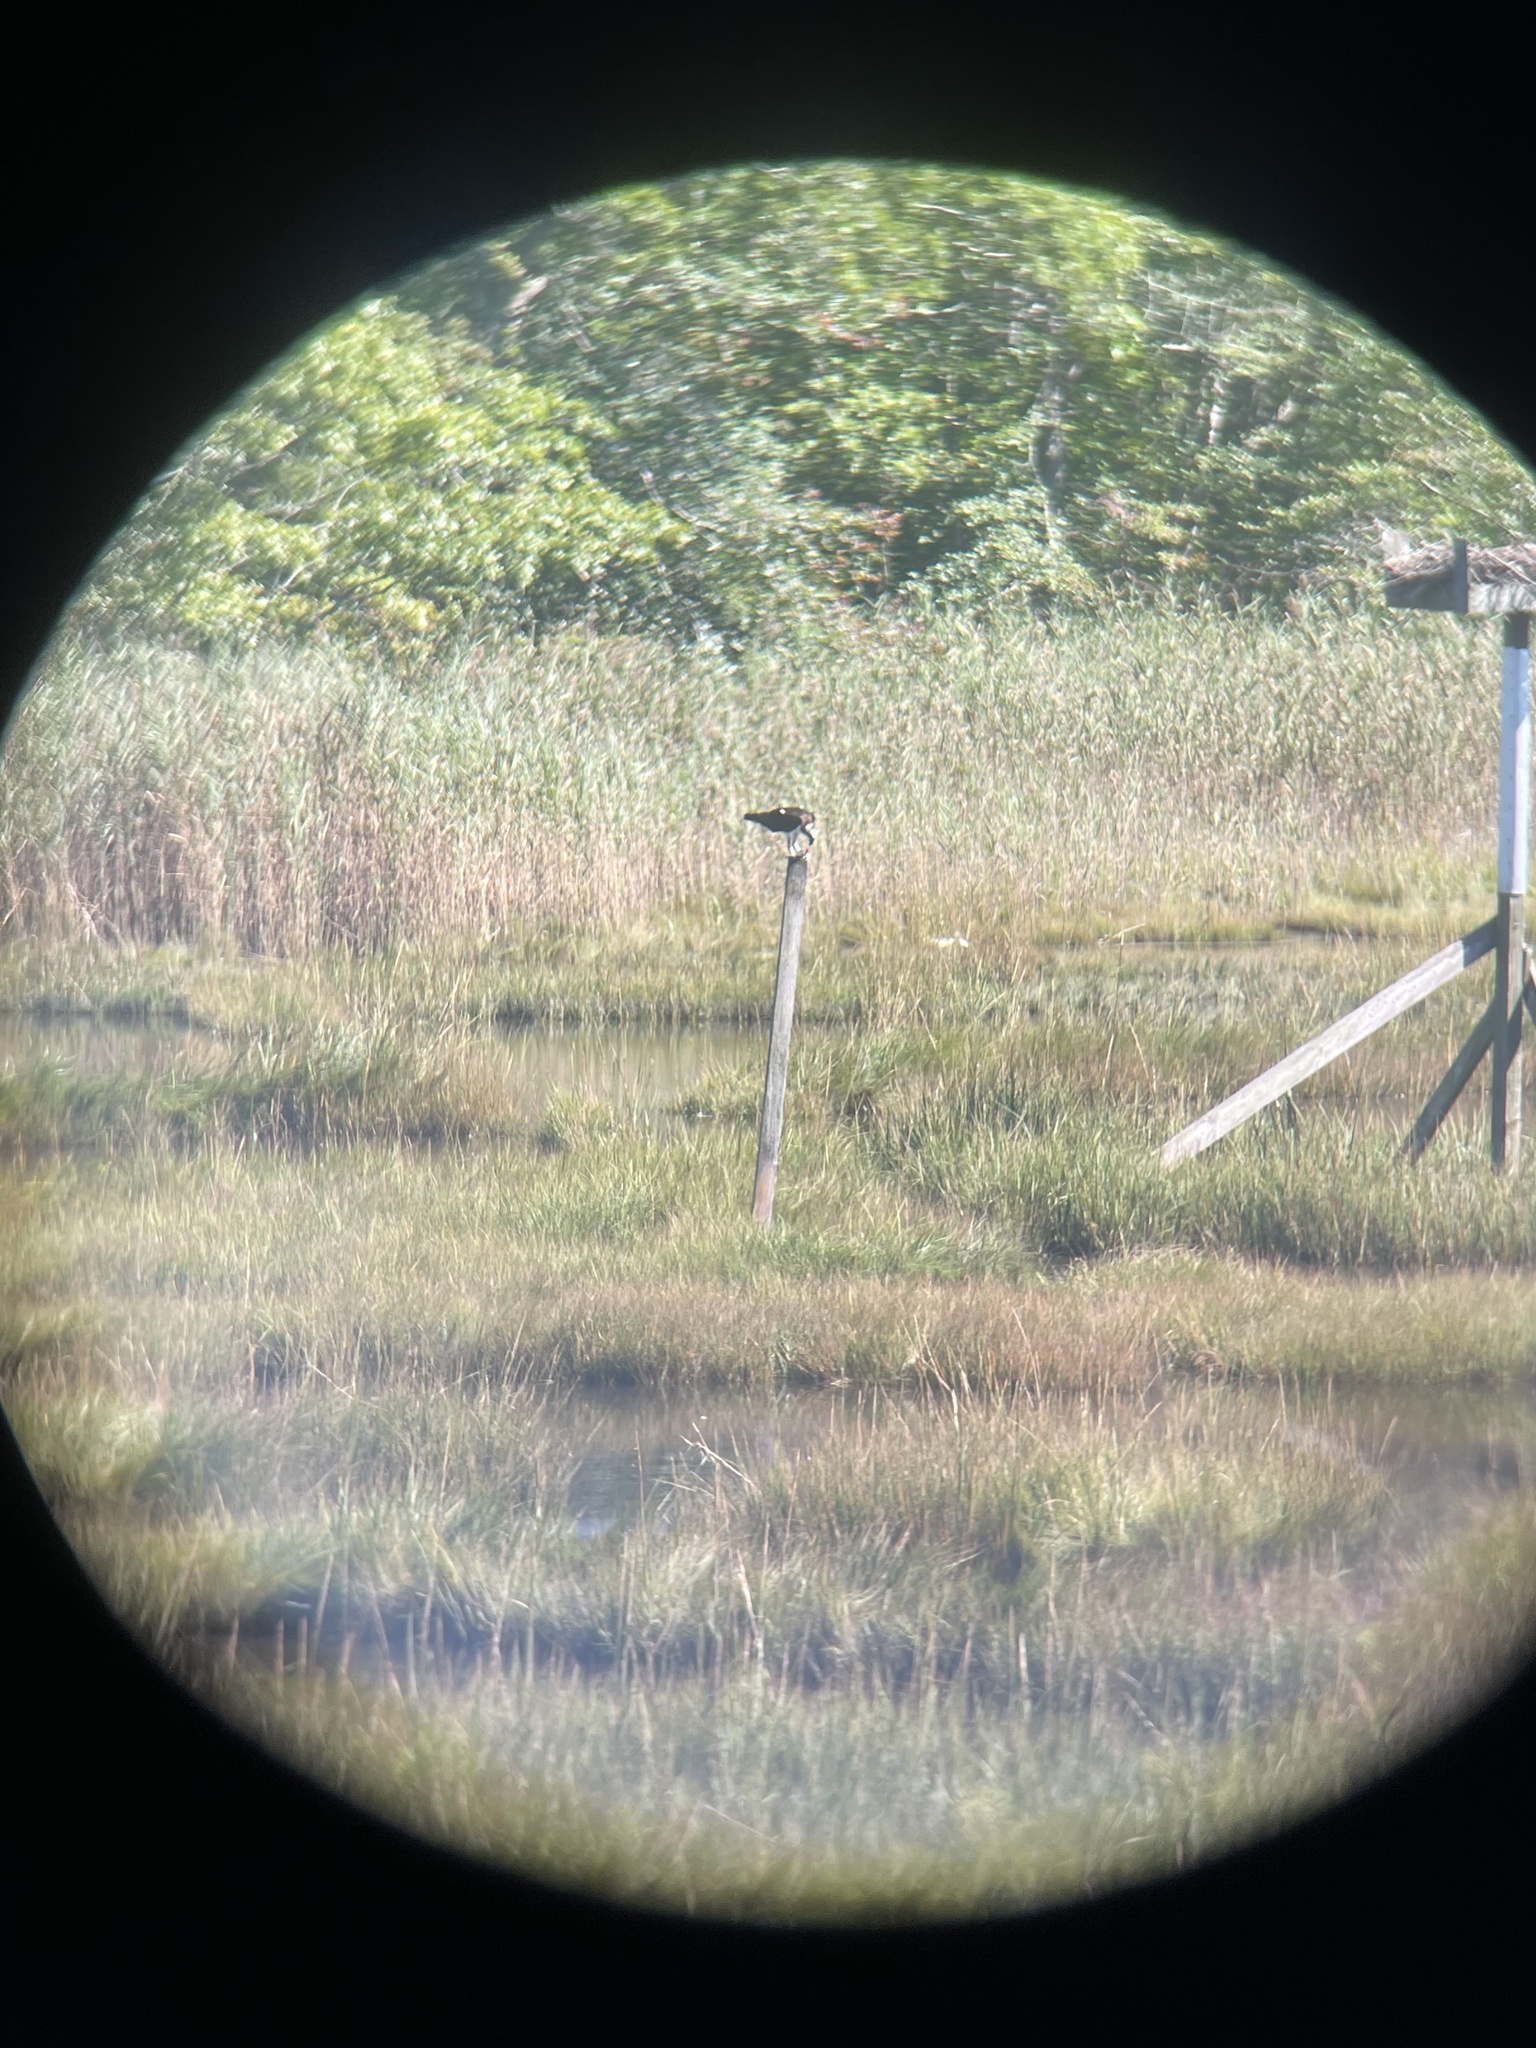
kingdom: Animalia
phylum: Chordata
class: Aves
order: Accipitriformes
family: Pandionidae
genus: Pandion
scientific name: Pandion haliaetus
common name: Osprey
